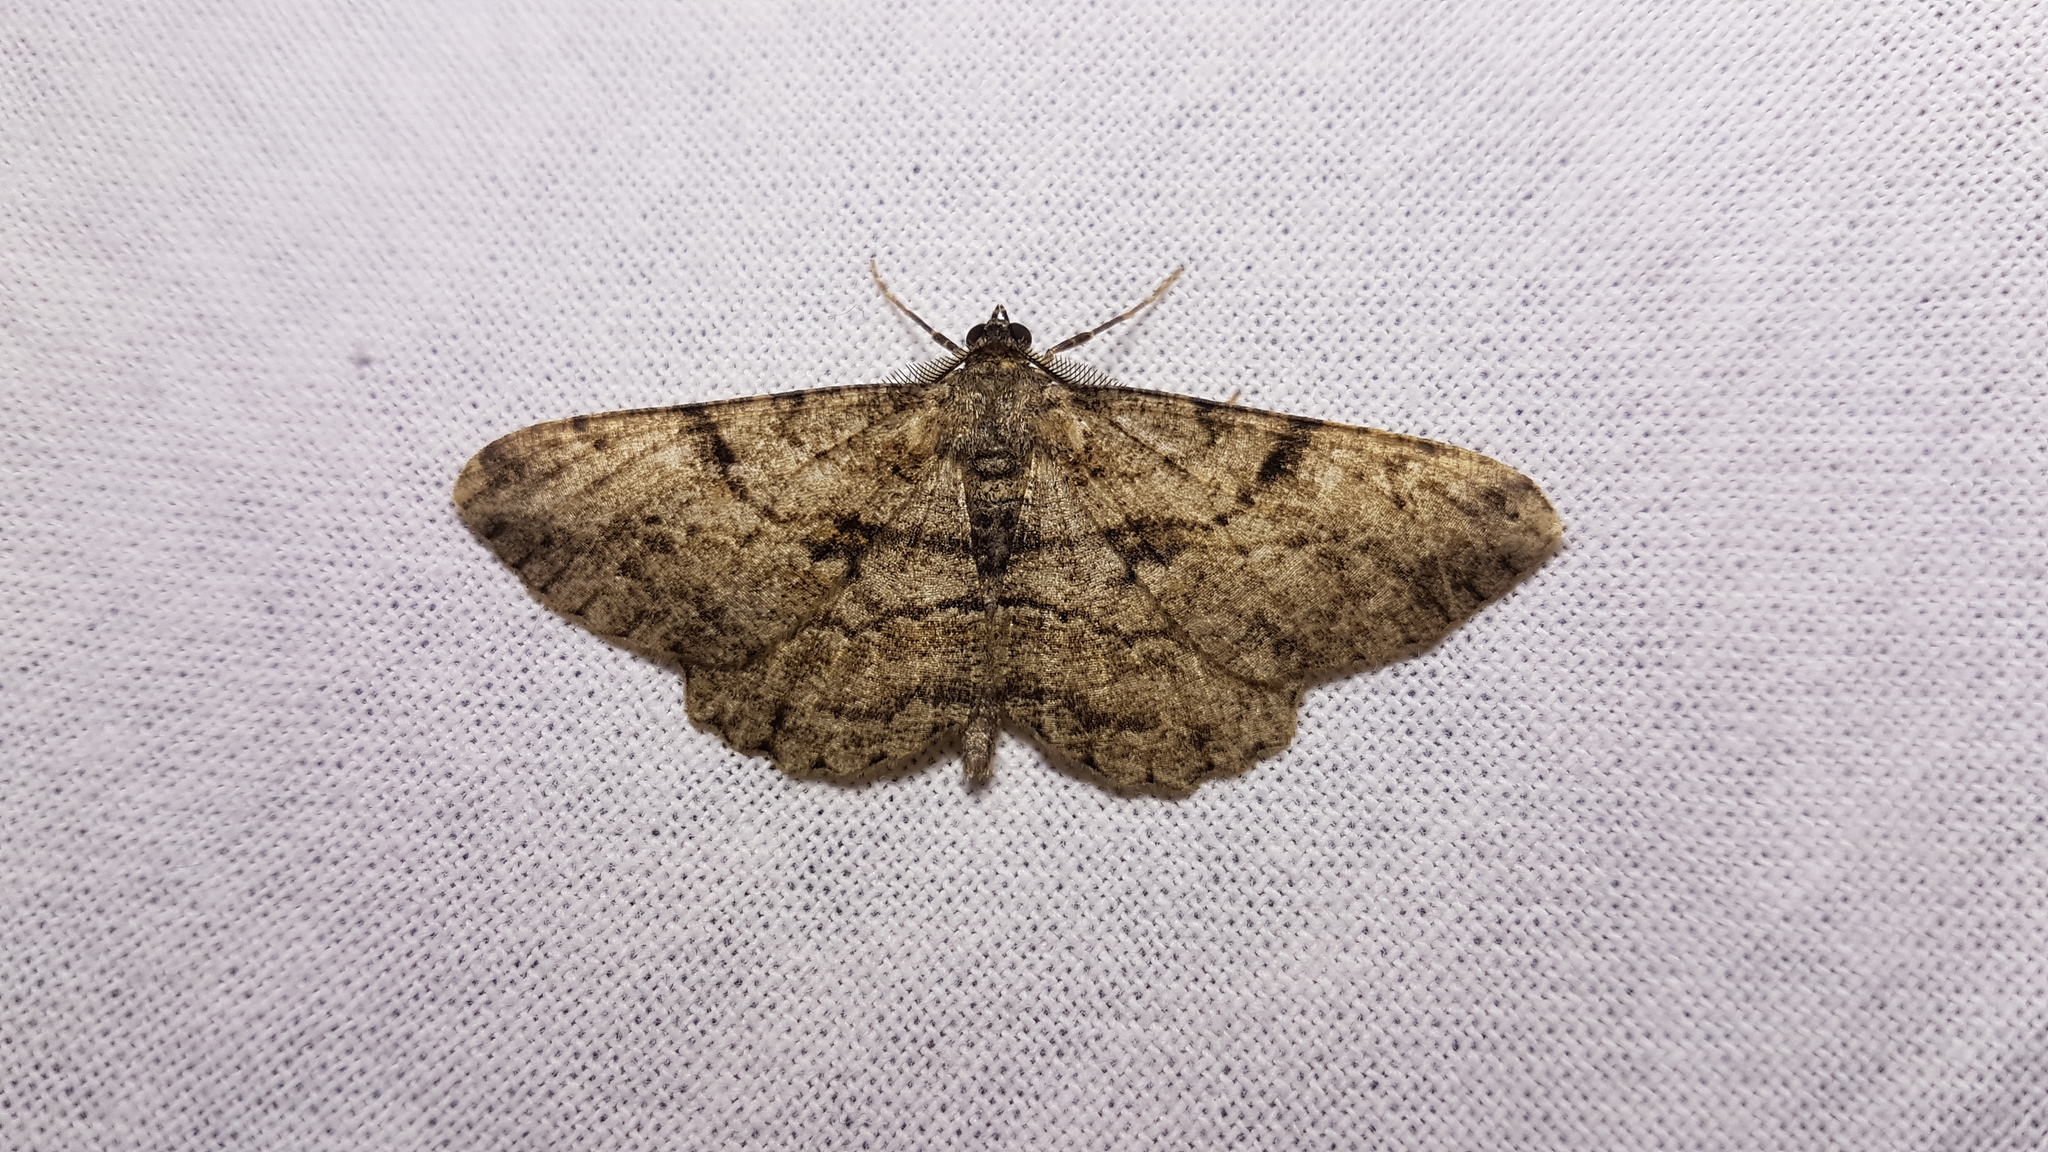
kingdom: Animalia
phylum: Arthropoda
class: Insecta
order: Lepidoptera
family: Geometridae
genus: Peribatodes
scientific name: Peribatodes rhomboidaria
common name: Willow beauty
